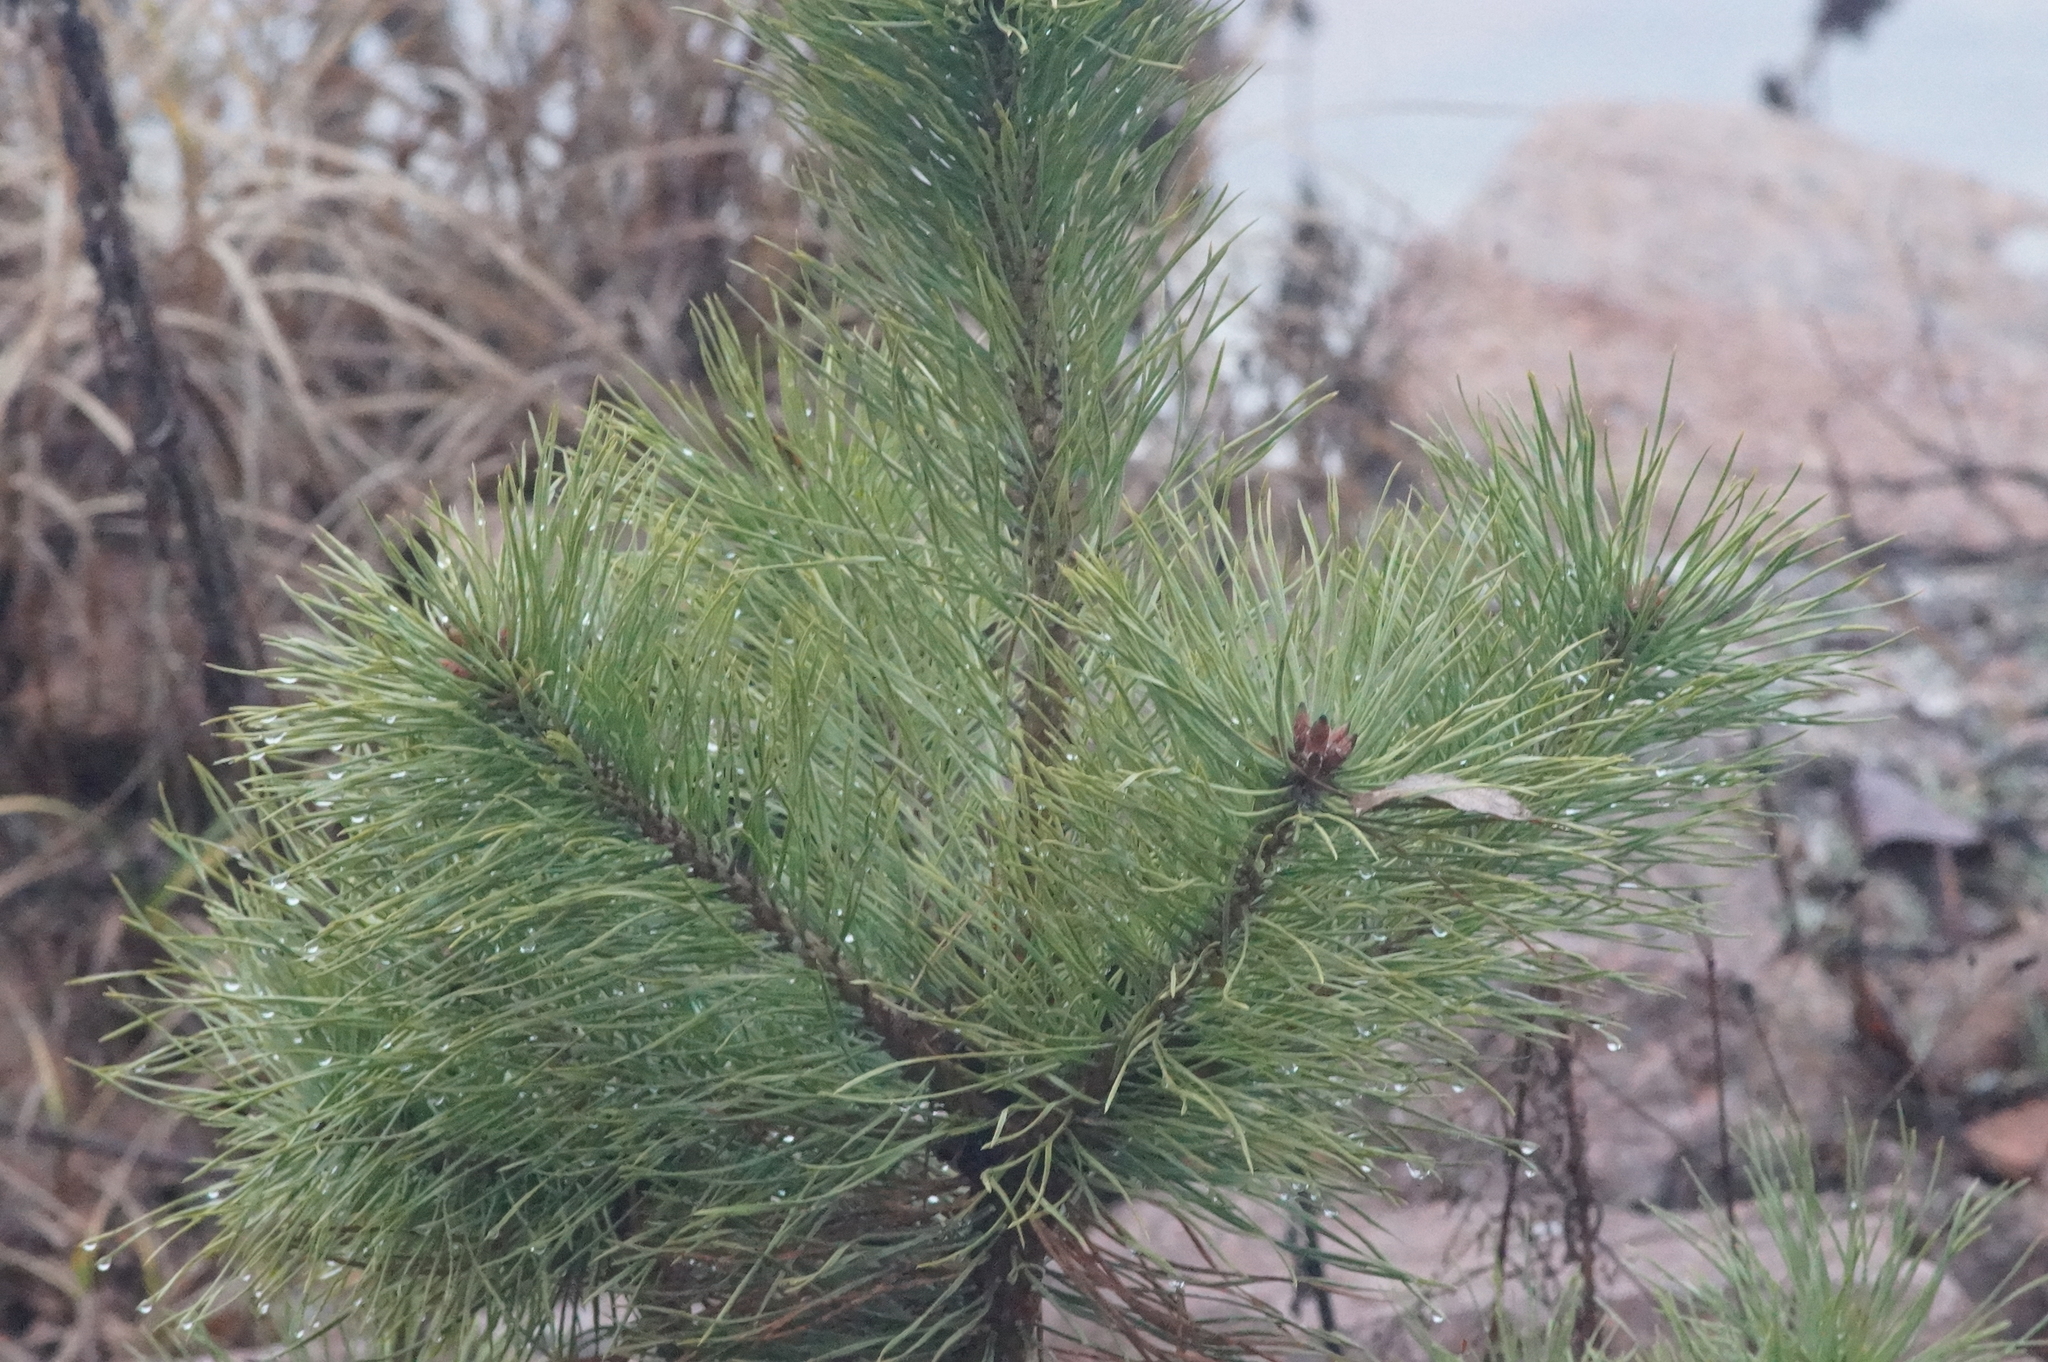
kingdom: Plantae
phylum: Tracheophyta
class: Pinopsida
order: Pinales
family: Pinaceae
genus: Pinus
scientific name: Pinus sylvestris
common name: Scots pine
